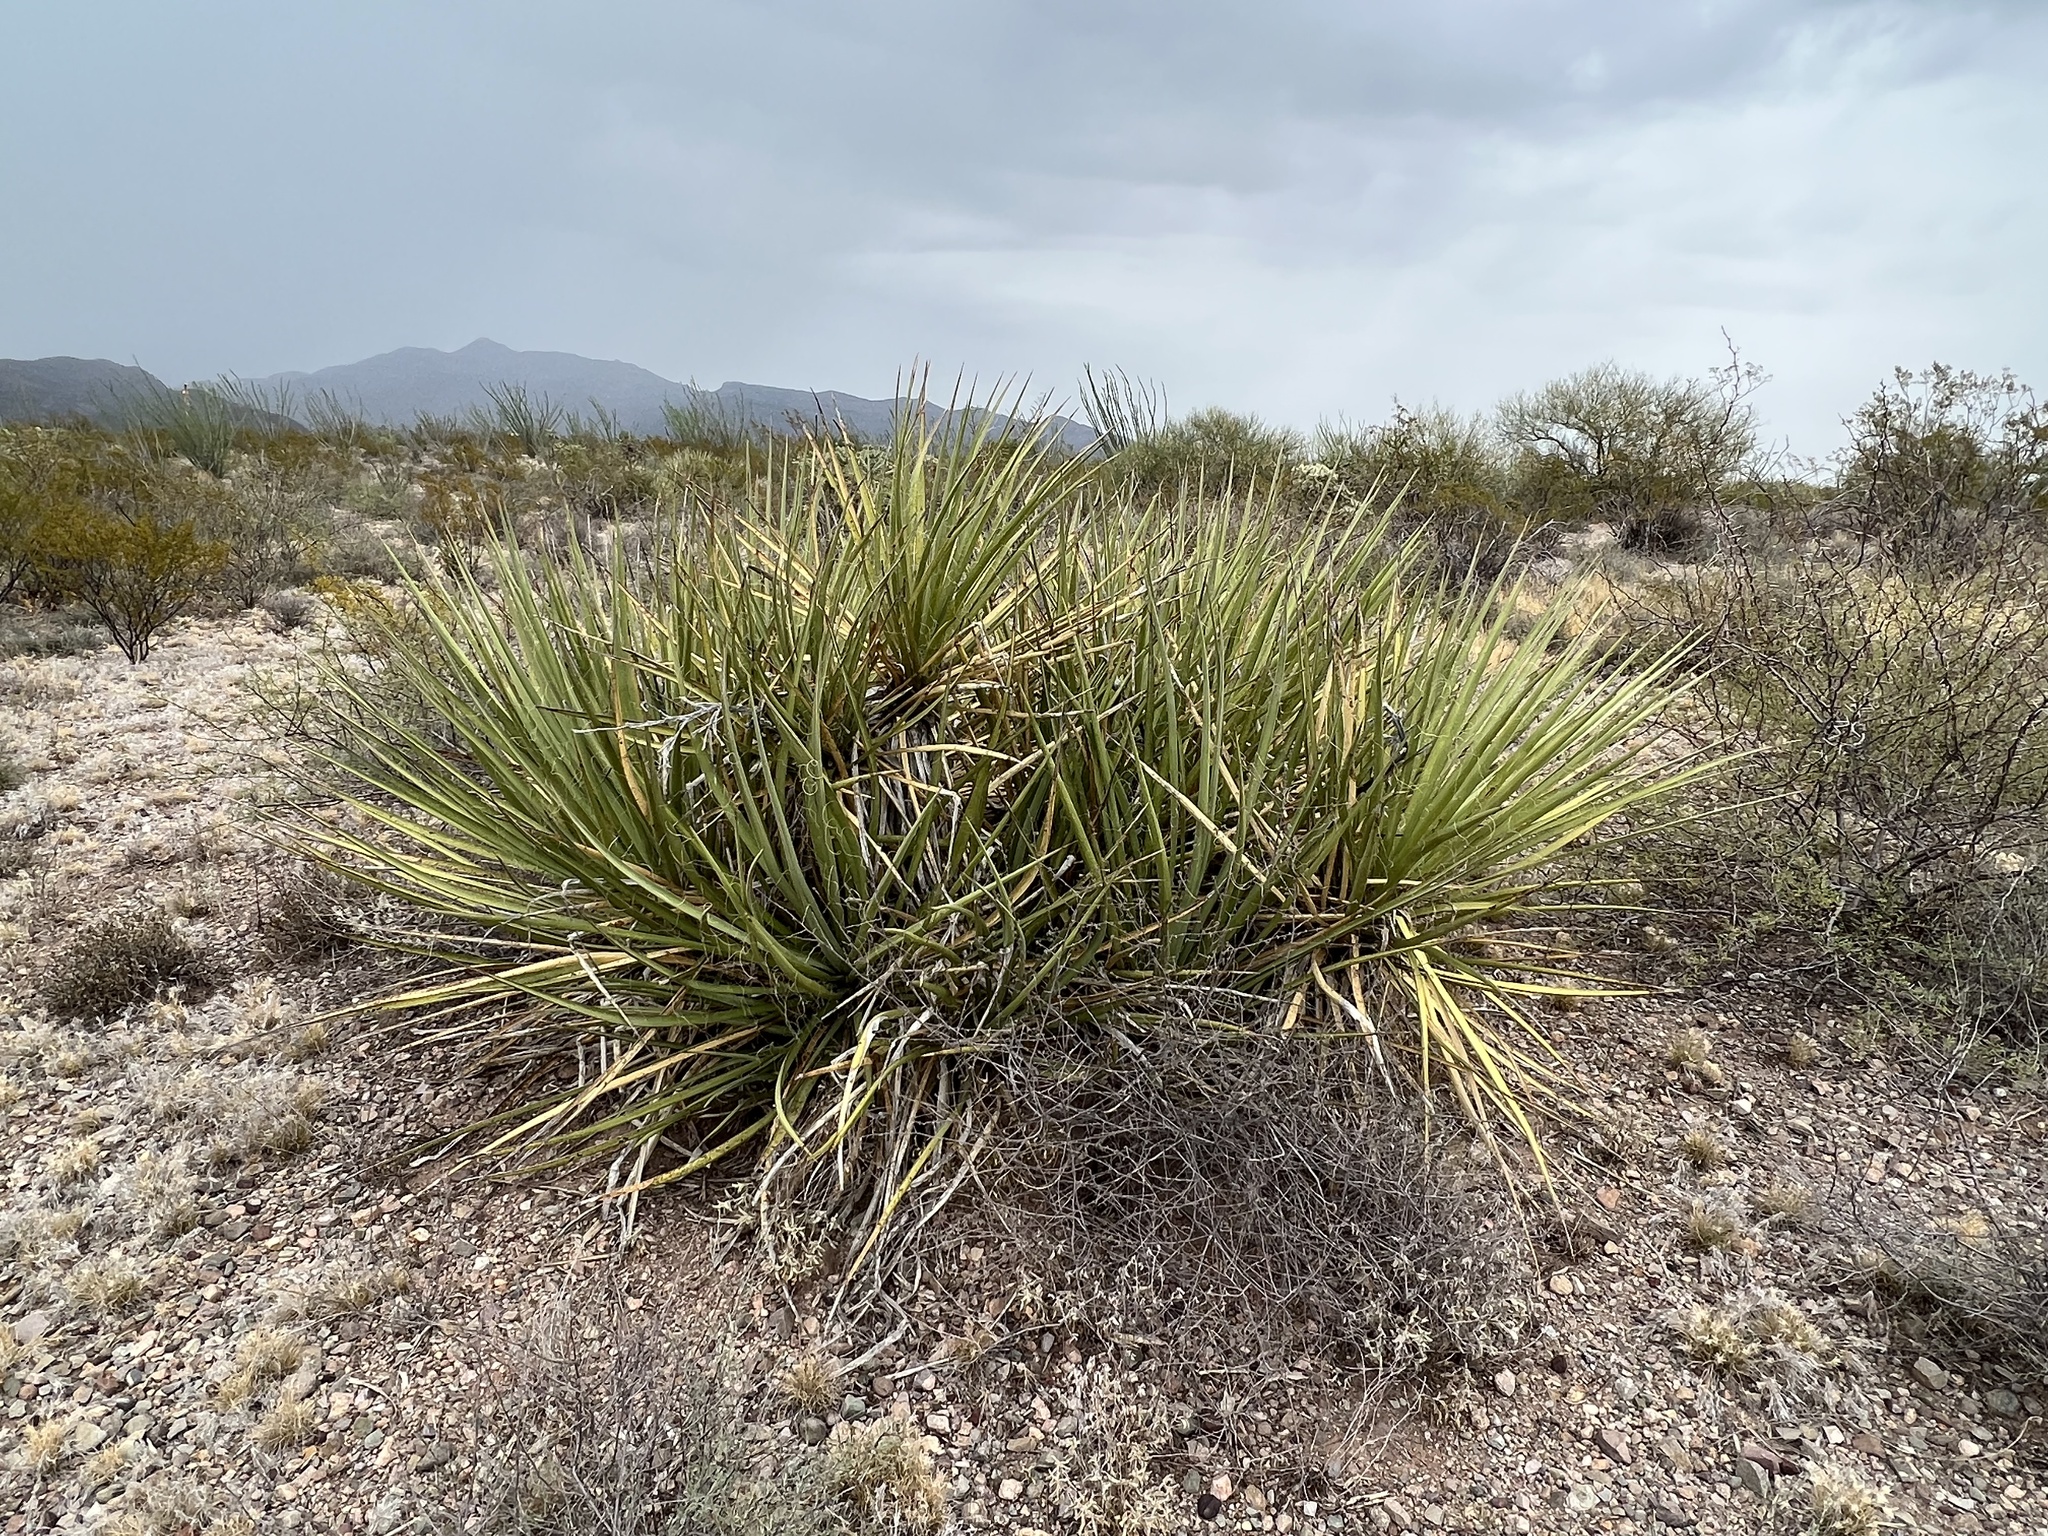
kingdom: Plantae
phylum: Tracheophyta
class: Liliopsida
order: Asparagales
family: Asparagaceae
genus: Yucca
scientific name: Yucca baccata
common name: Banana yucca
